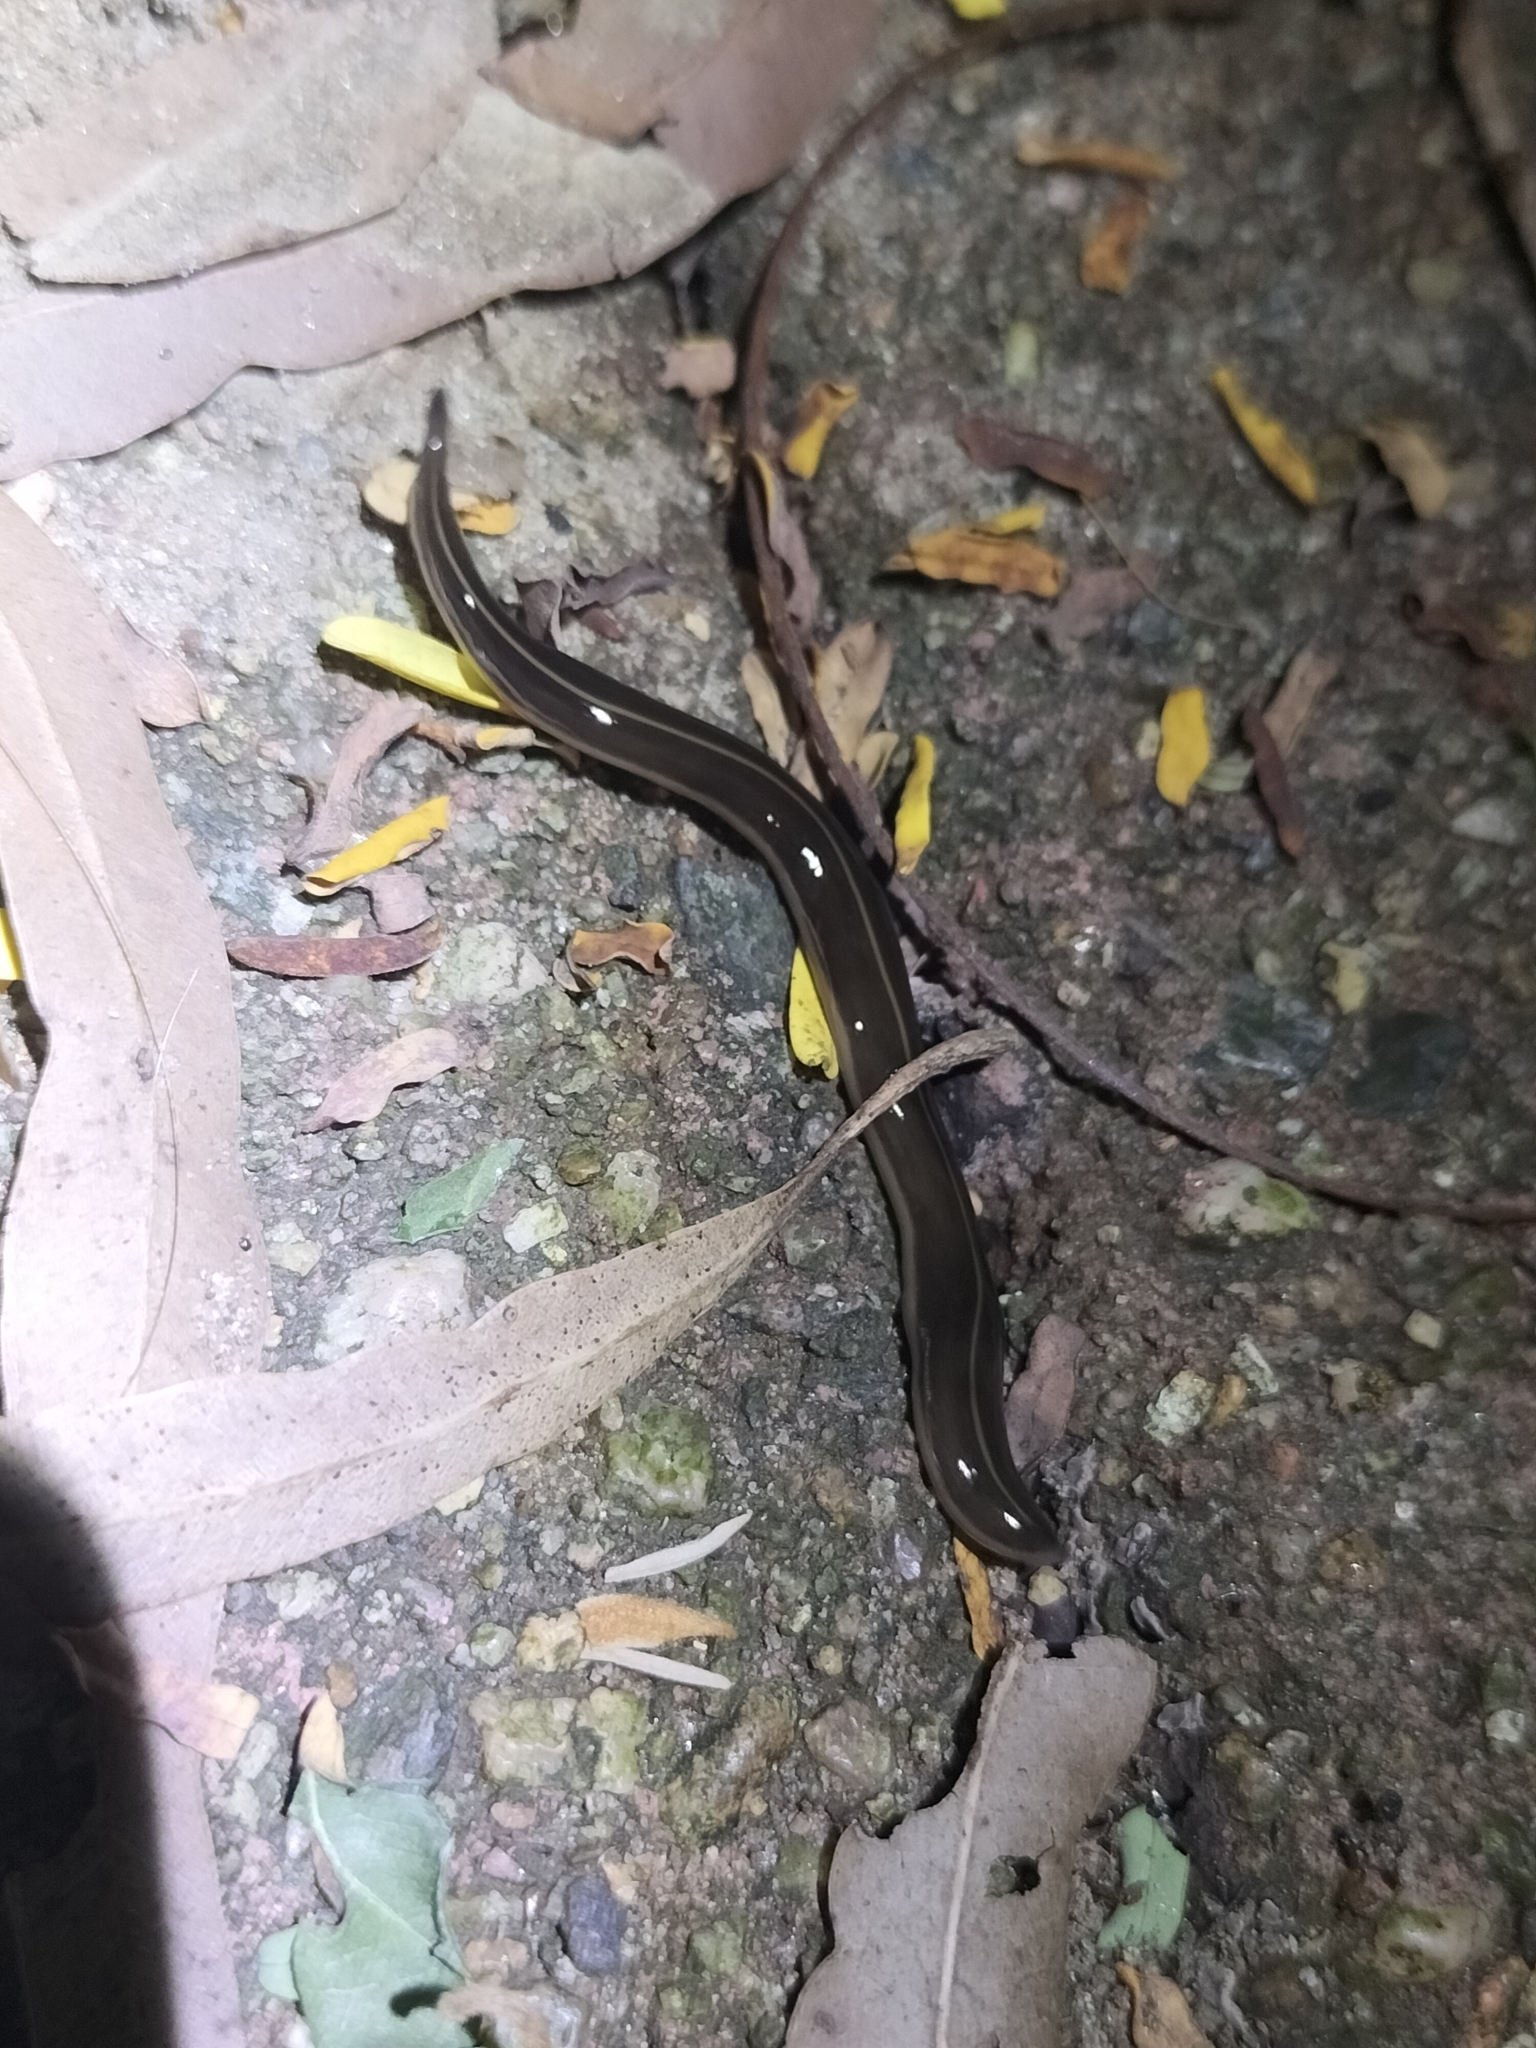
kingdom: Animalia
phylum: Platyhelminthes
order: Tricladida
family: Geoplanidae
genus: Platydemus
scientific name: Platydemus manokwari
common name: New guinea flatworm
